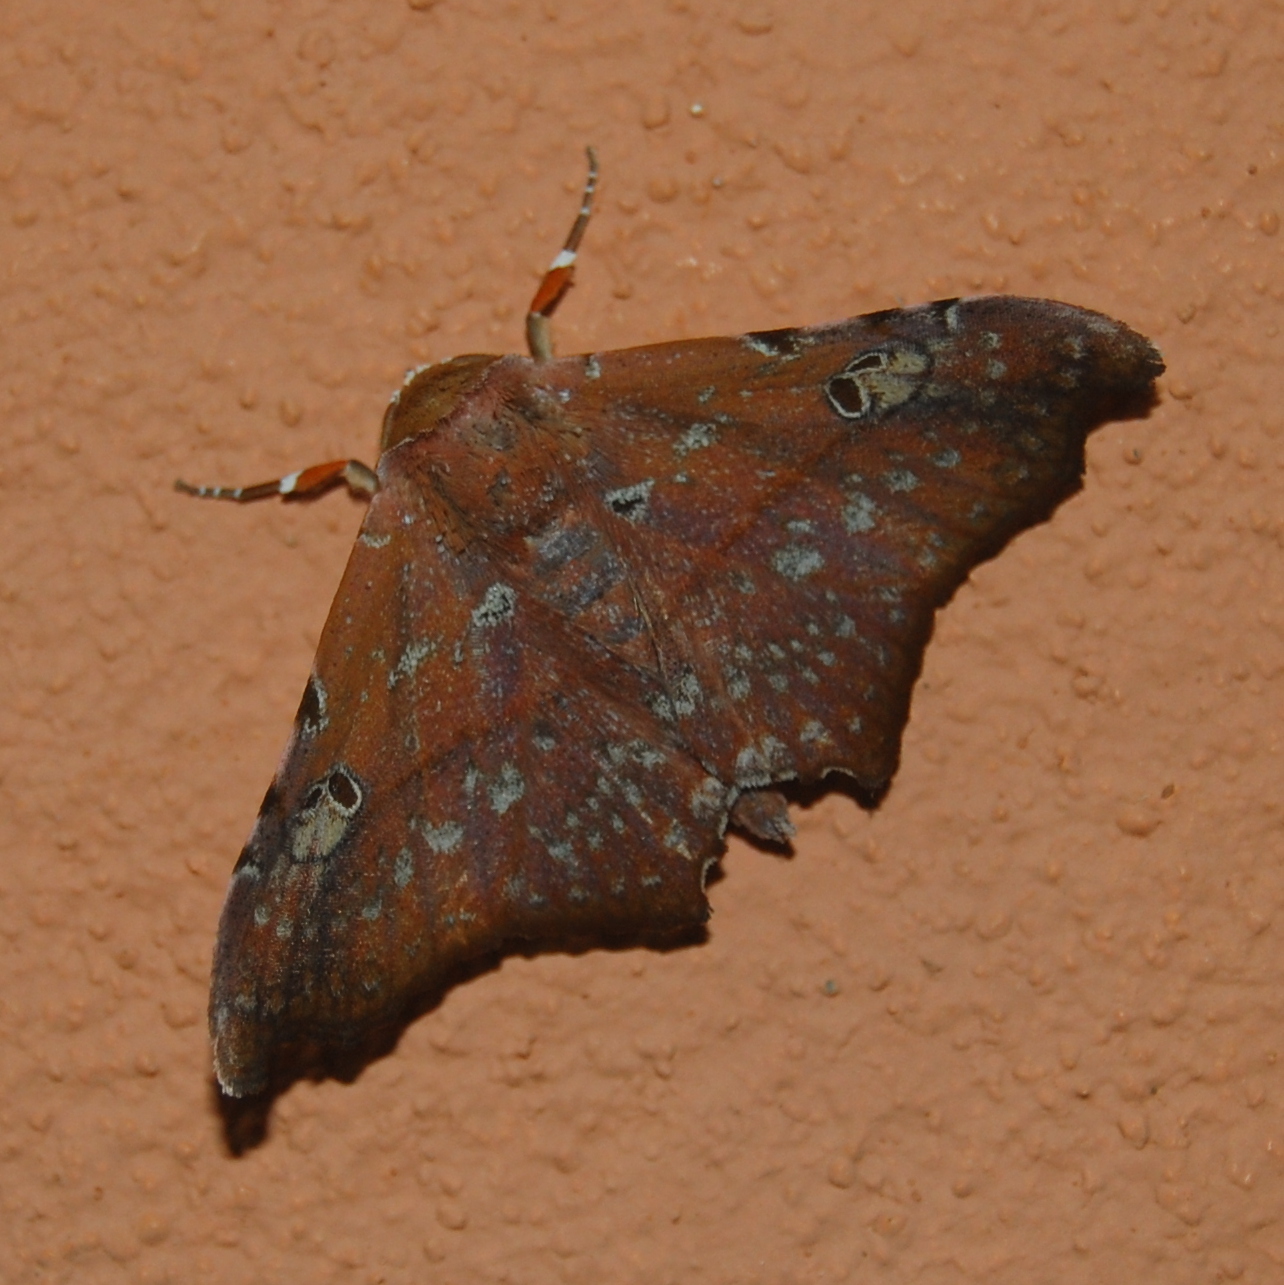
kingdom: Animalia
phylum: Arthropoda
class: Insecta
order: Lepidoptera
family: Erebidae
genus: Tautobriga
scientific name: Tautobriga euspila
